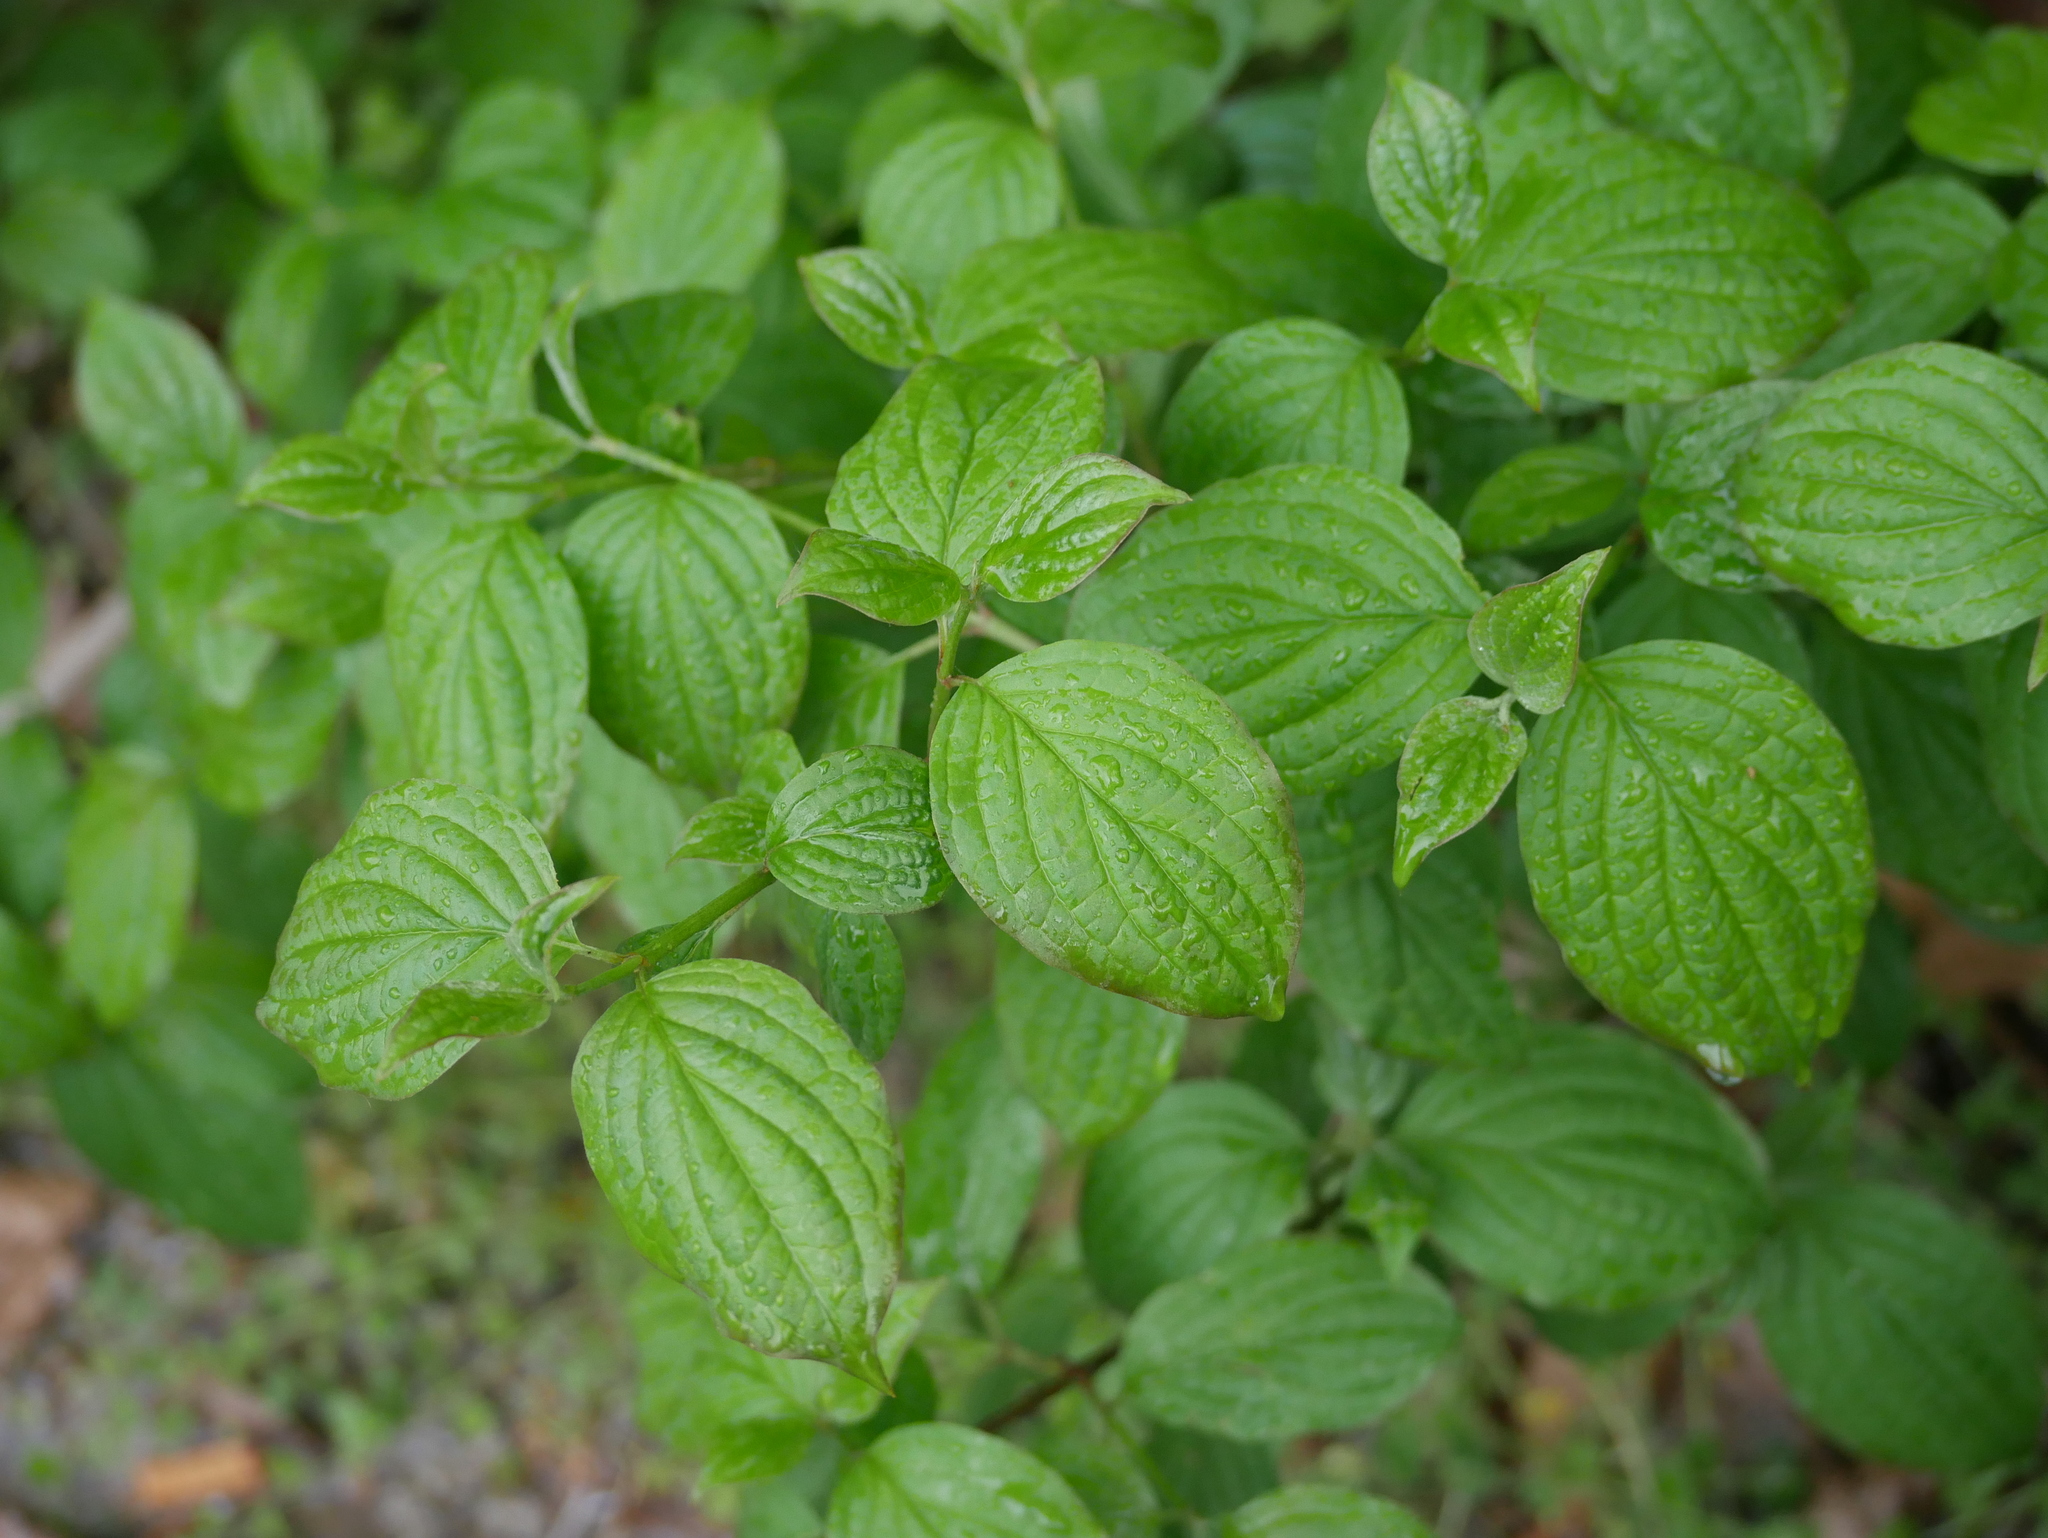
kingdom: Plantae
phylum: Tracheophyta
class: Magnoliopsida
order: Cornales
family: Cornaceae
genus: Cornus
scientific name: Cornus sanguinea
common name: Dogwood
